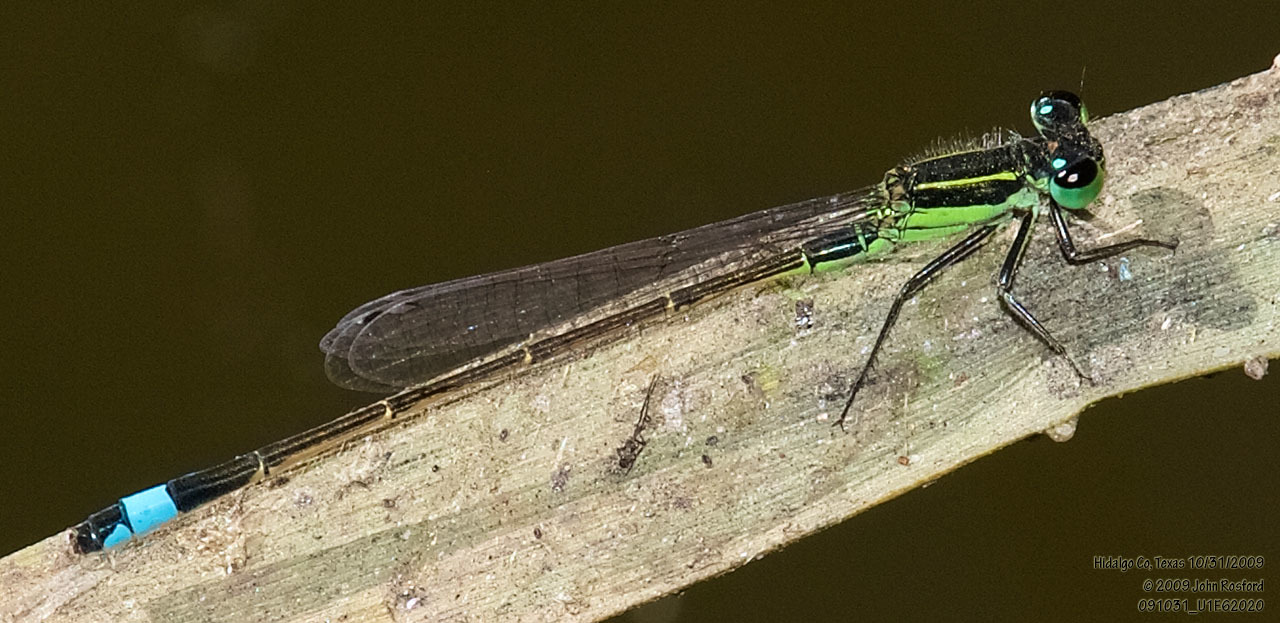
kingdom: Animalia
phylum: Arthropoda
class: Insecta
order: Odonata
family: Coenagrionidae
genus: Ischnura
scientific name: Ischnura ramburii
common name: Rambur's forktail
